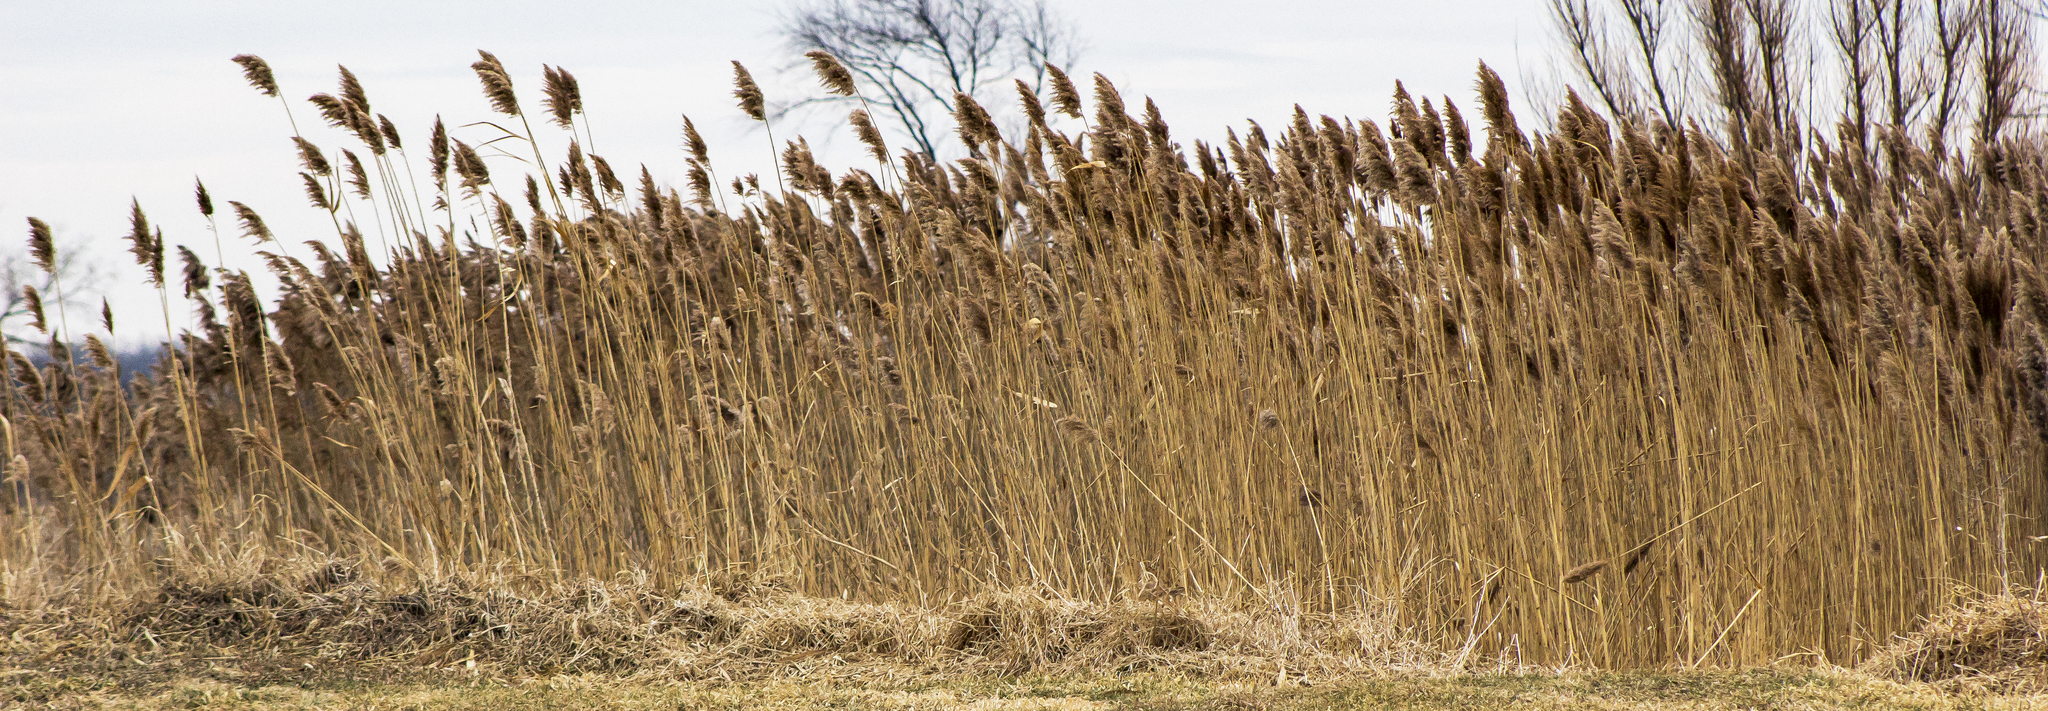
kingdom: Plantae
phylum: Tracheophyta
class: Liliopsida
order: Poales
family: Poaceae
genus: Phragmites
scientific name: Phragmites australis
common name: Common reed
